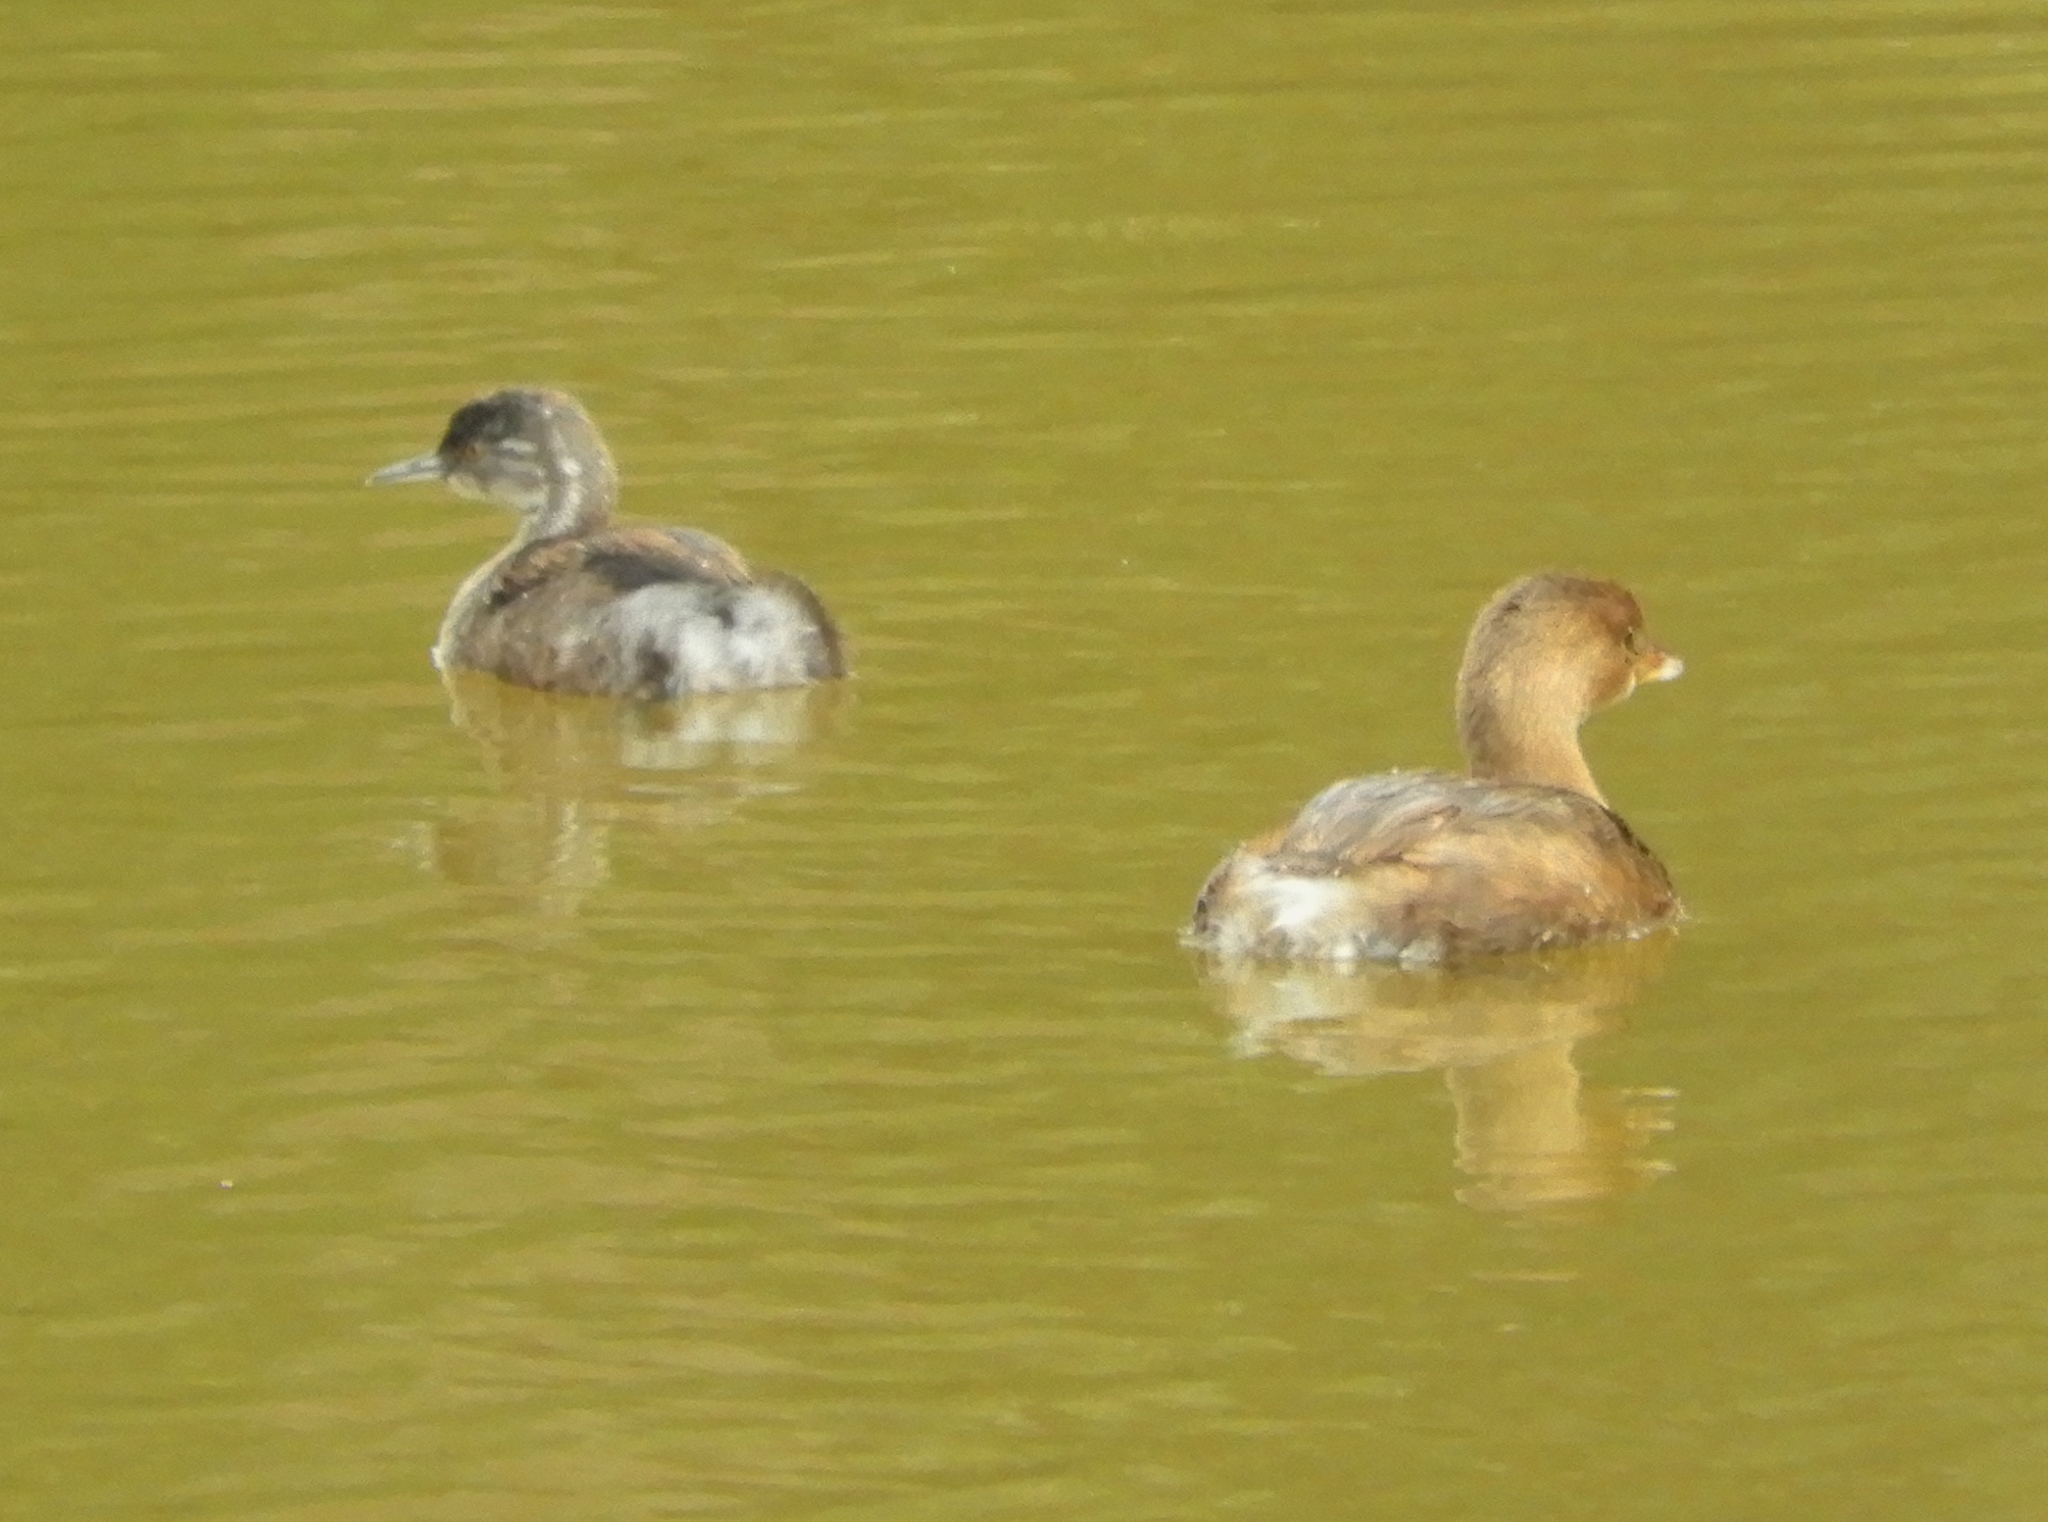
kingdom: Animalia
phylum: Chordata
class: Aves
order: Podicipediformes
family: Podicipedidae
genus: Podilymbus
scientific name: Podilymbus podiceps
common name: Pied-billed grebe
